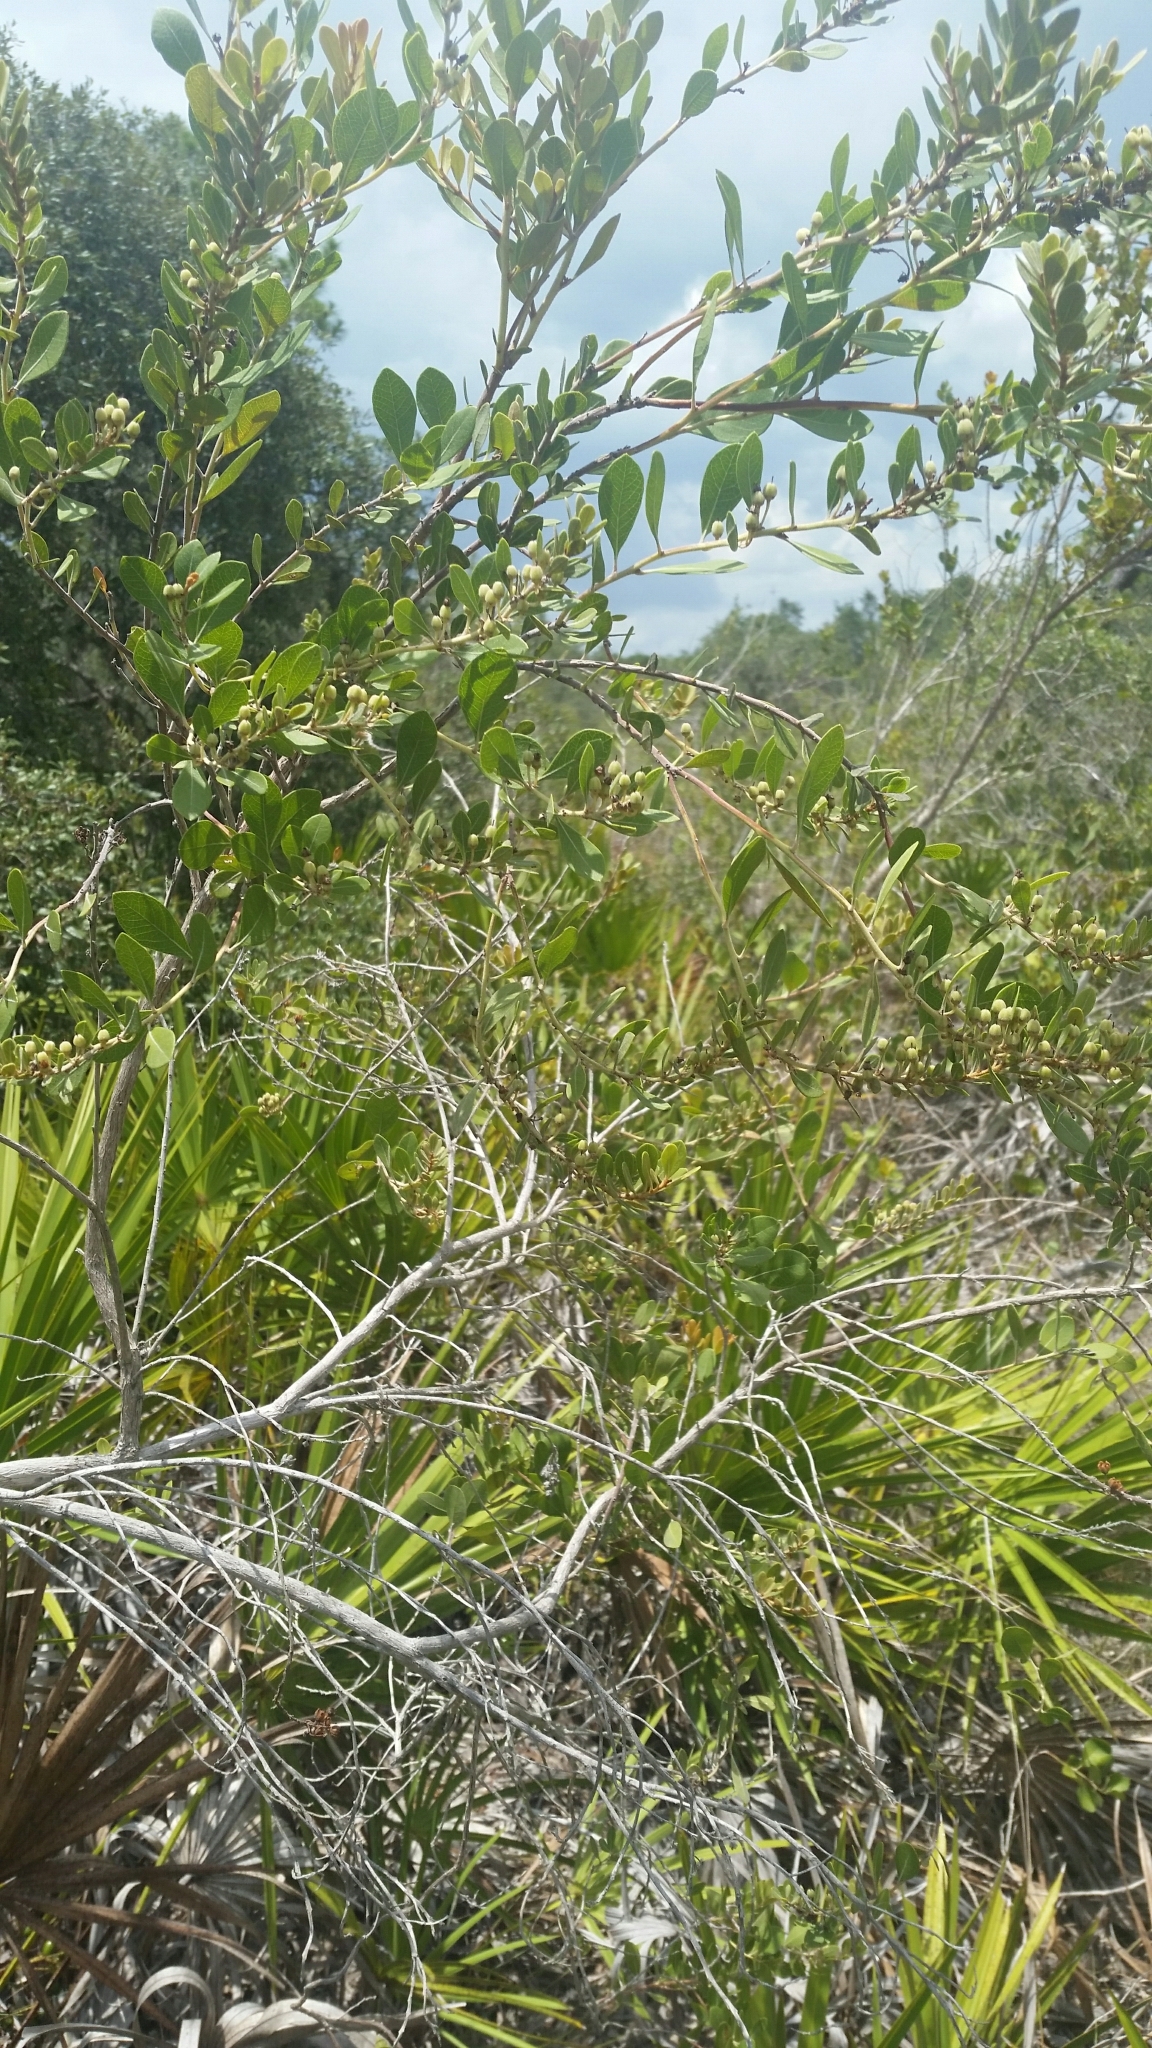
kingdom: Plantae
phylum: Tracheophyta
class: Magnoliopsida
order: Ericales
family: Ericaceae
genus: Lyonia
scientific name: Lyonia fruticosa
